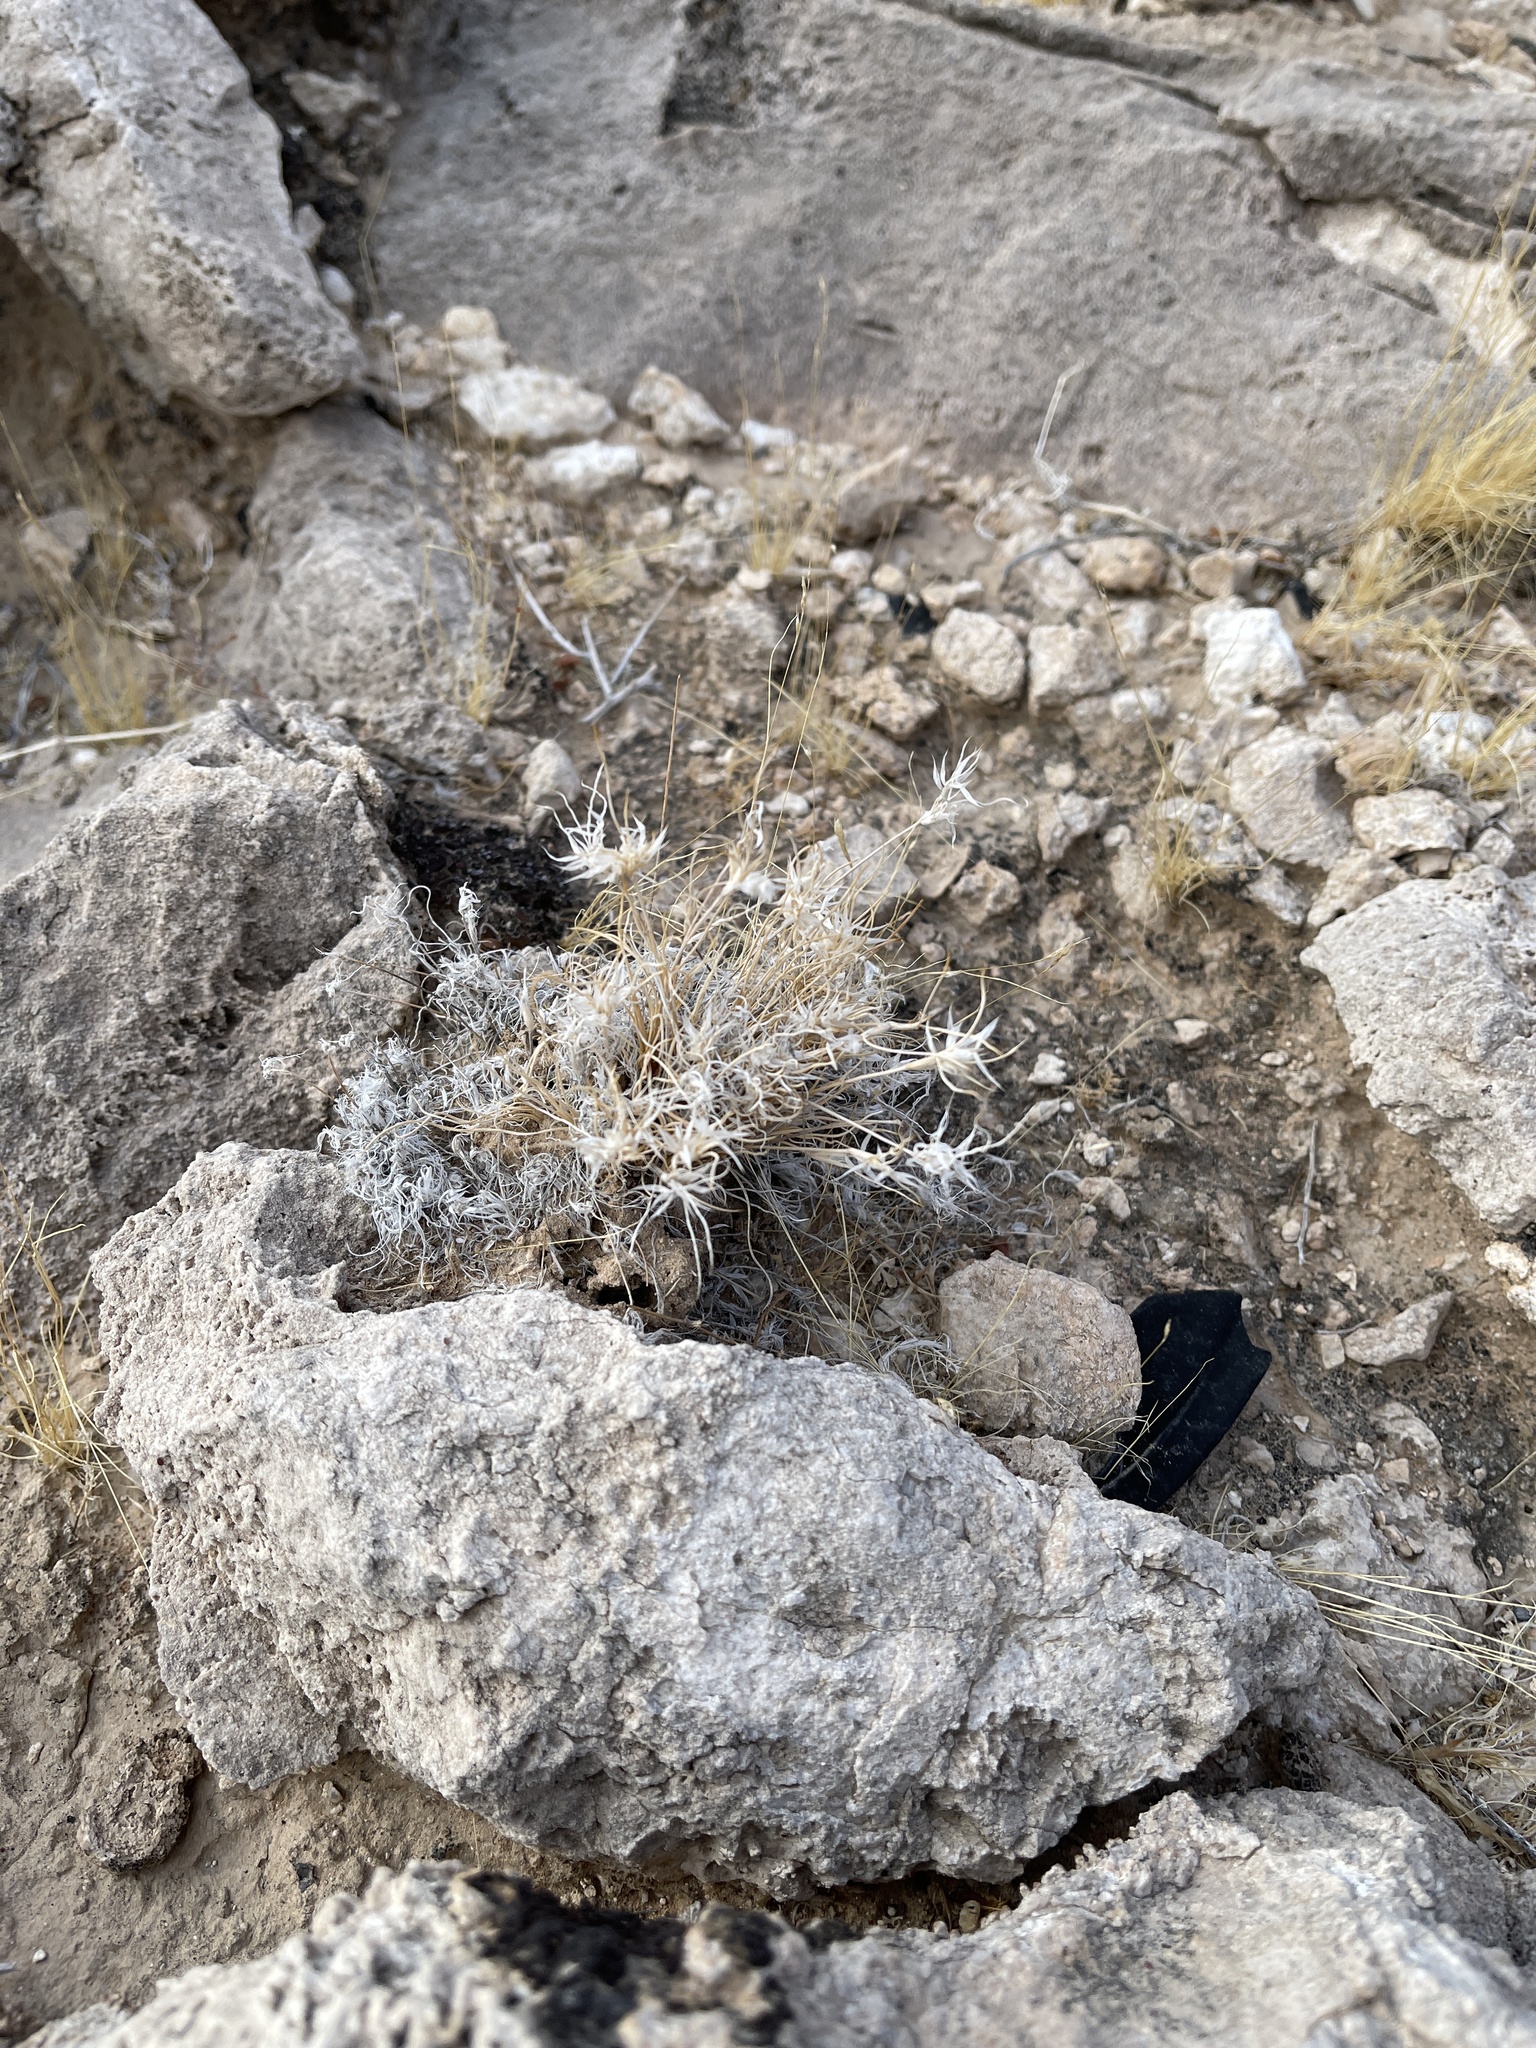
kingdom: Plantae
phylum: Tracheophyta
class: Liliopsida
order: Poales
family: Poaceae
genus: Dasyochloa
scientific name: Dasyochloa pulchella
